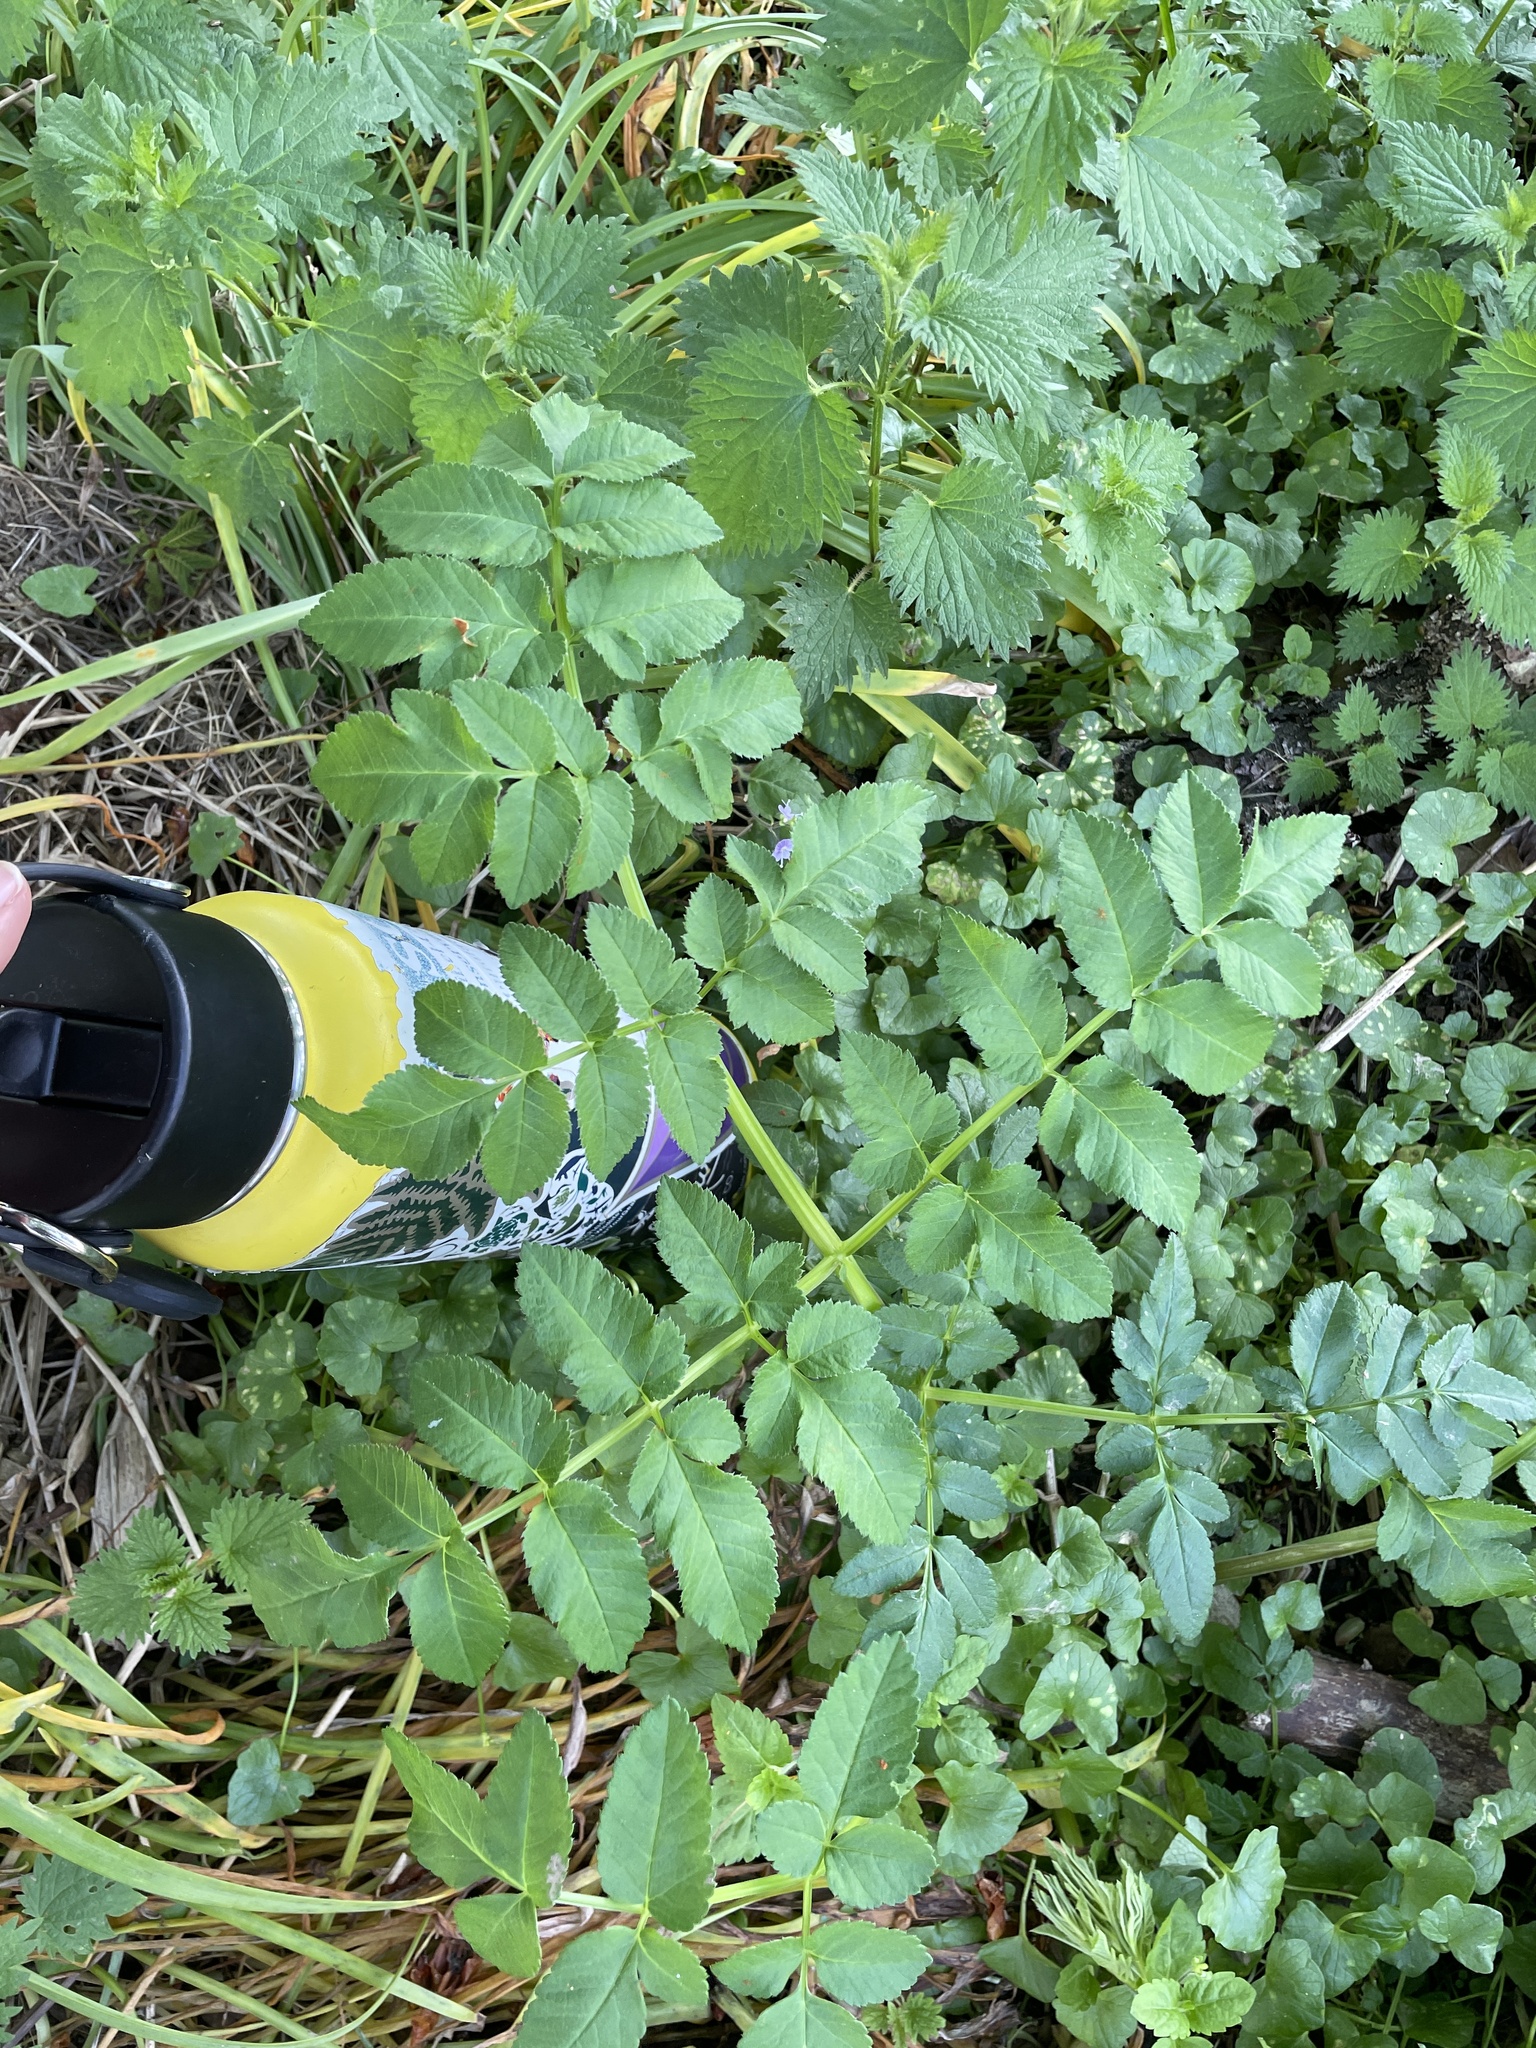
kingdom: Plantae
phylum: Tracheophyta
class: Magnoliopsida
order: Apiales
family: Apiaceae
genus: Angelica
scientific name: Angelica sylvestris
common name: Wild angelica
